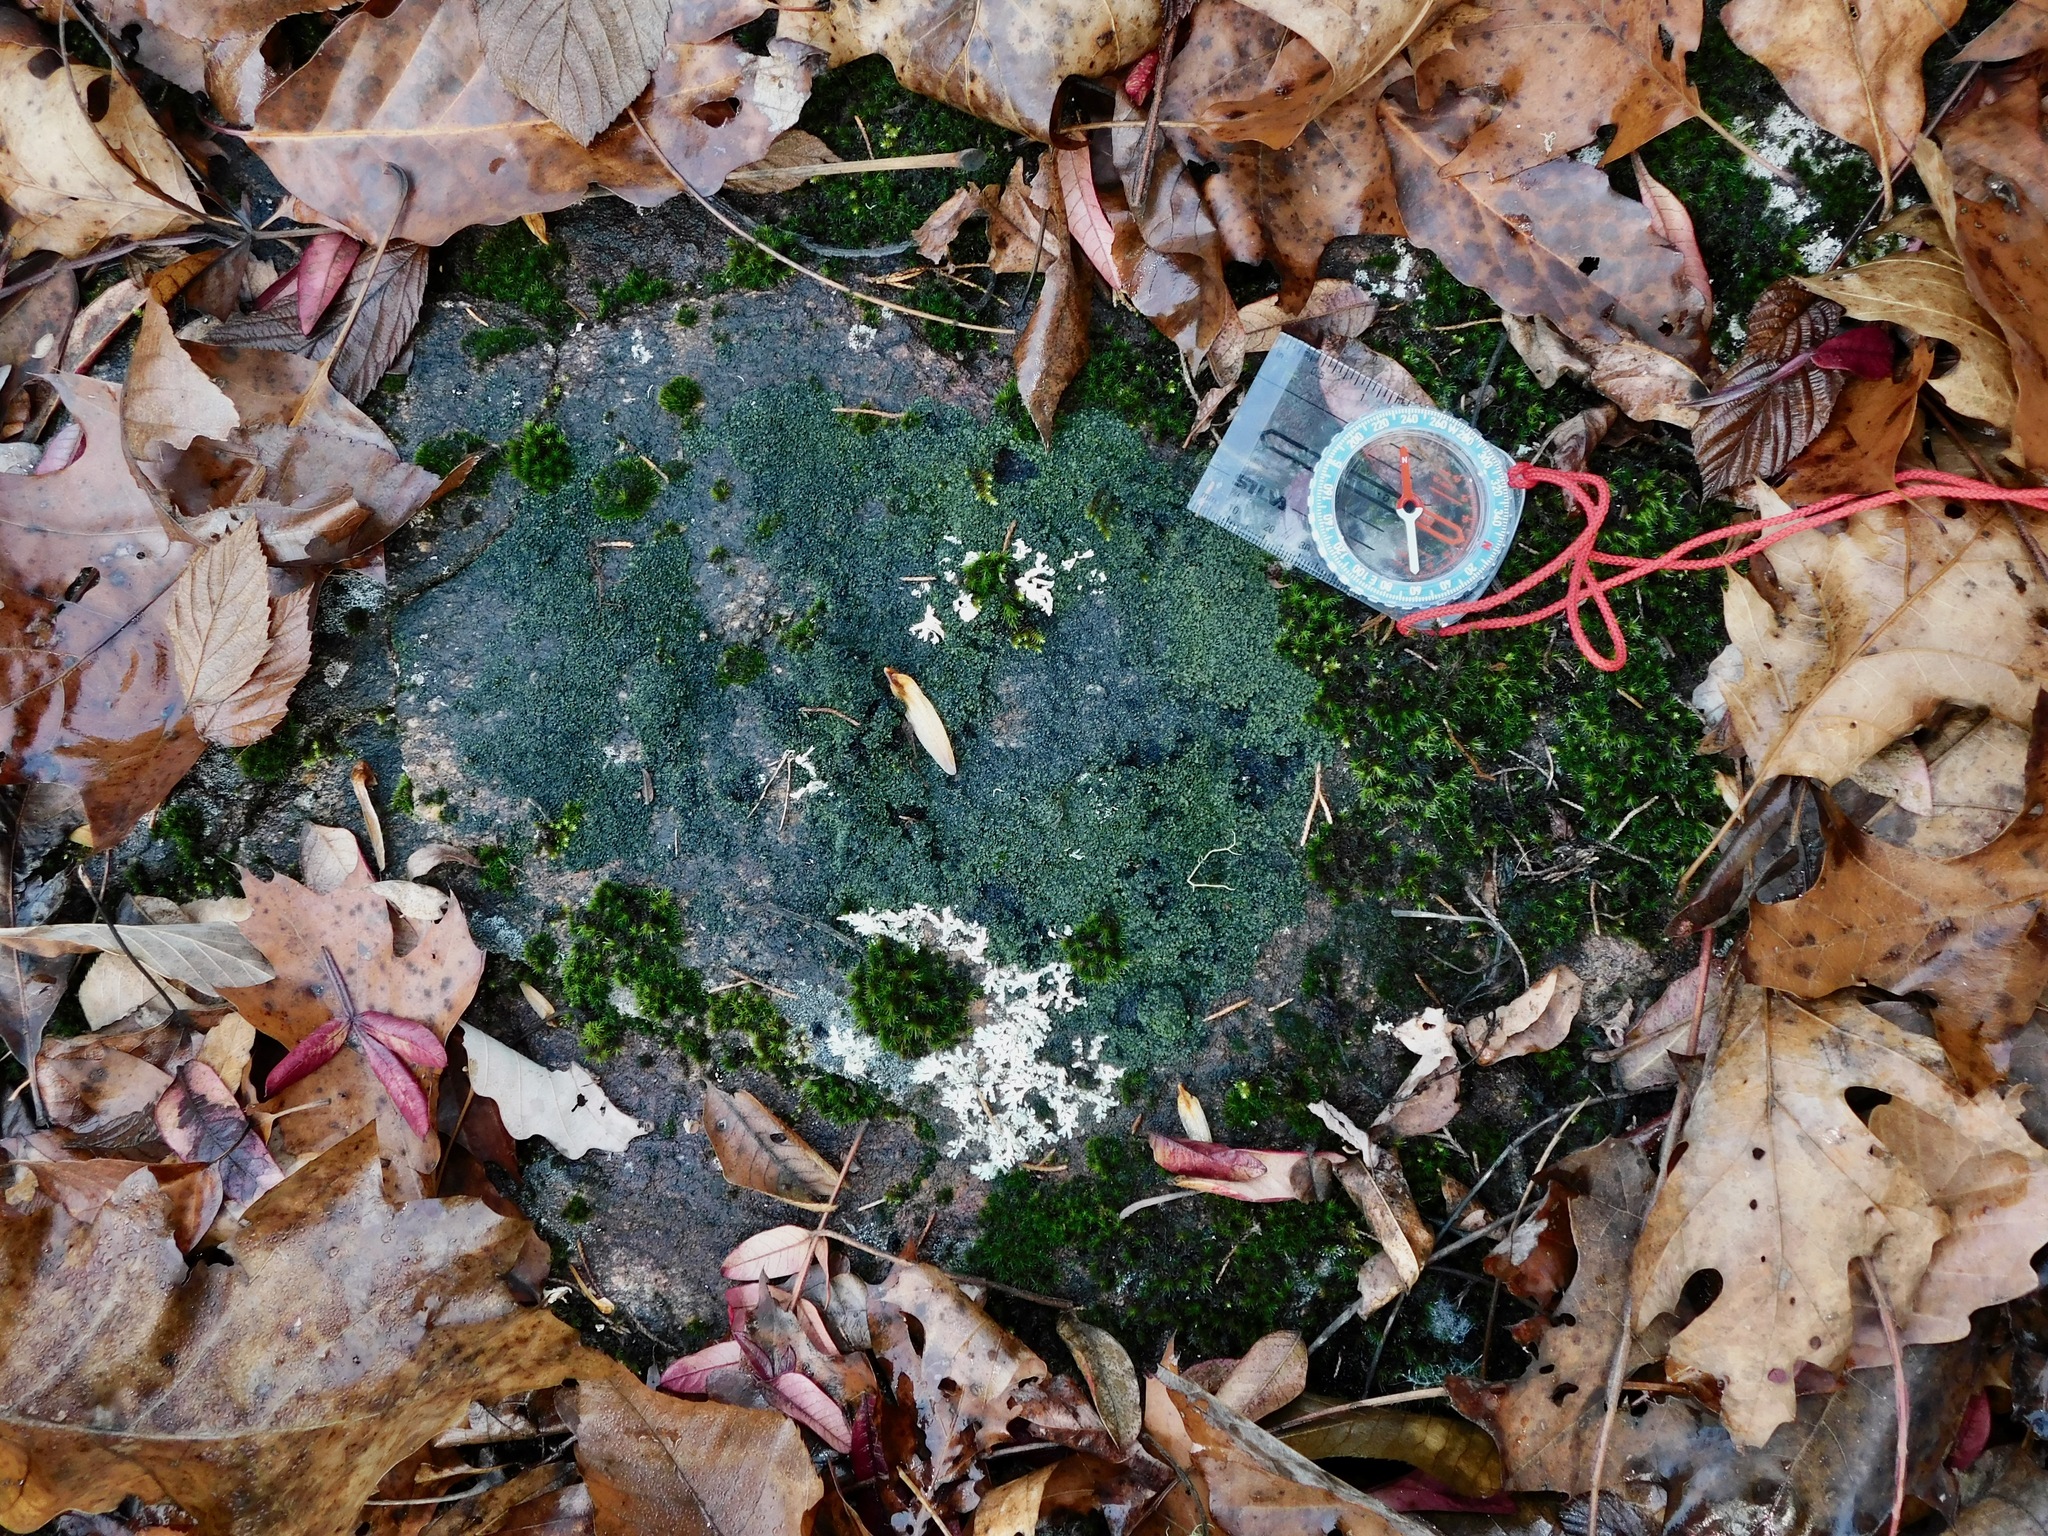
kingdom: Fungi
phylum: Ascomycota
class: Lecanoromycetes
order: Lecanorales
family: Psoraceae
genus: Psorula
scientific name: Psorula rufonigra
